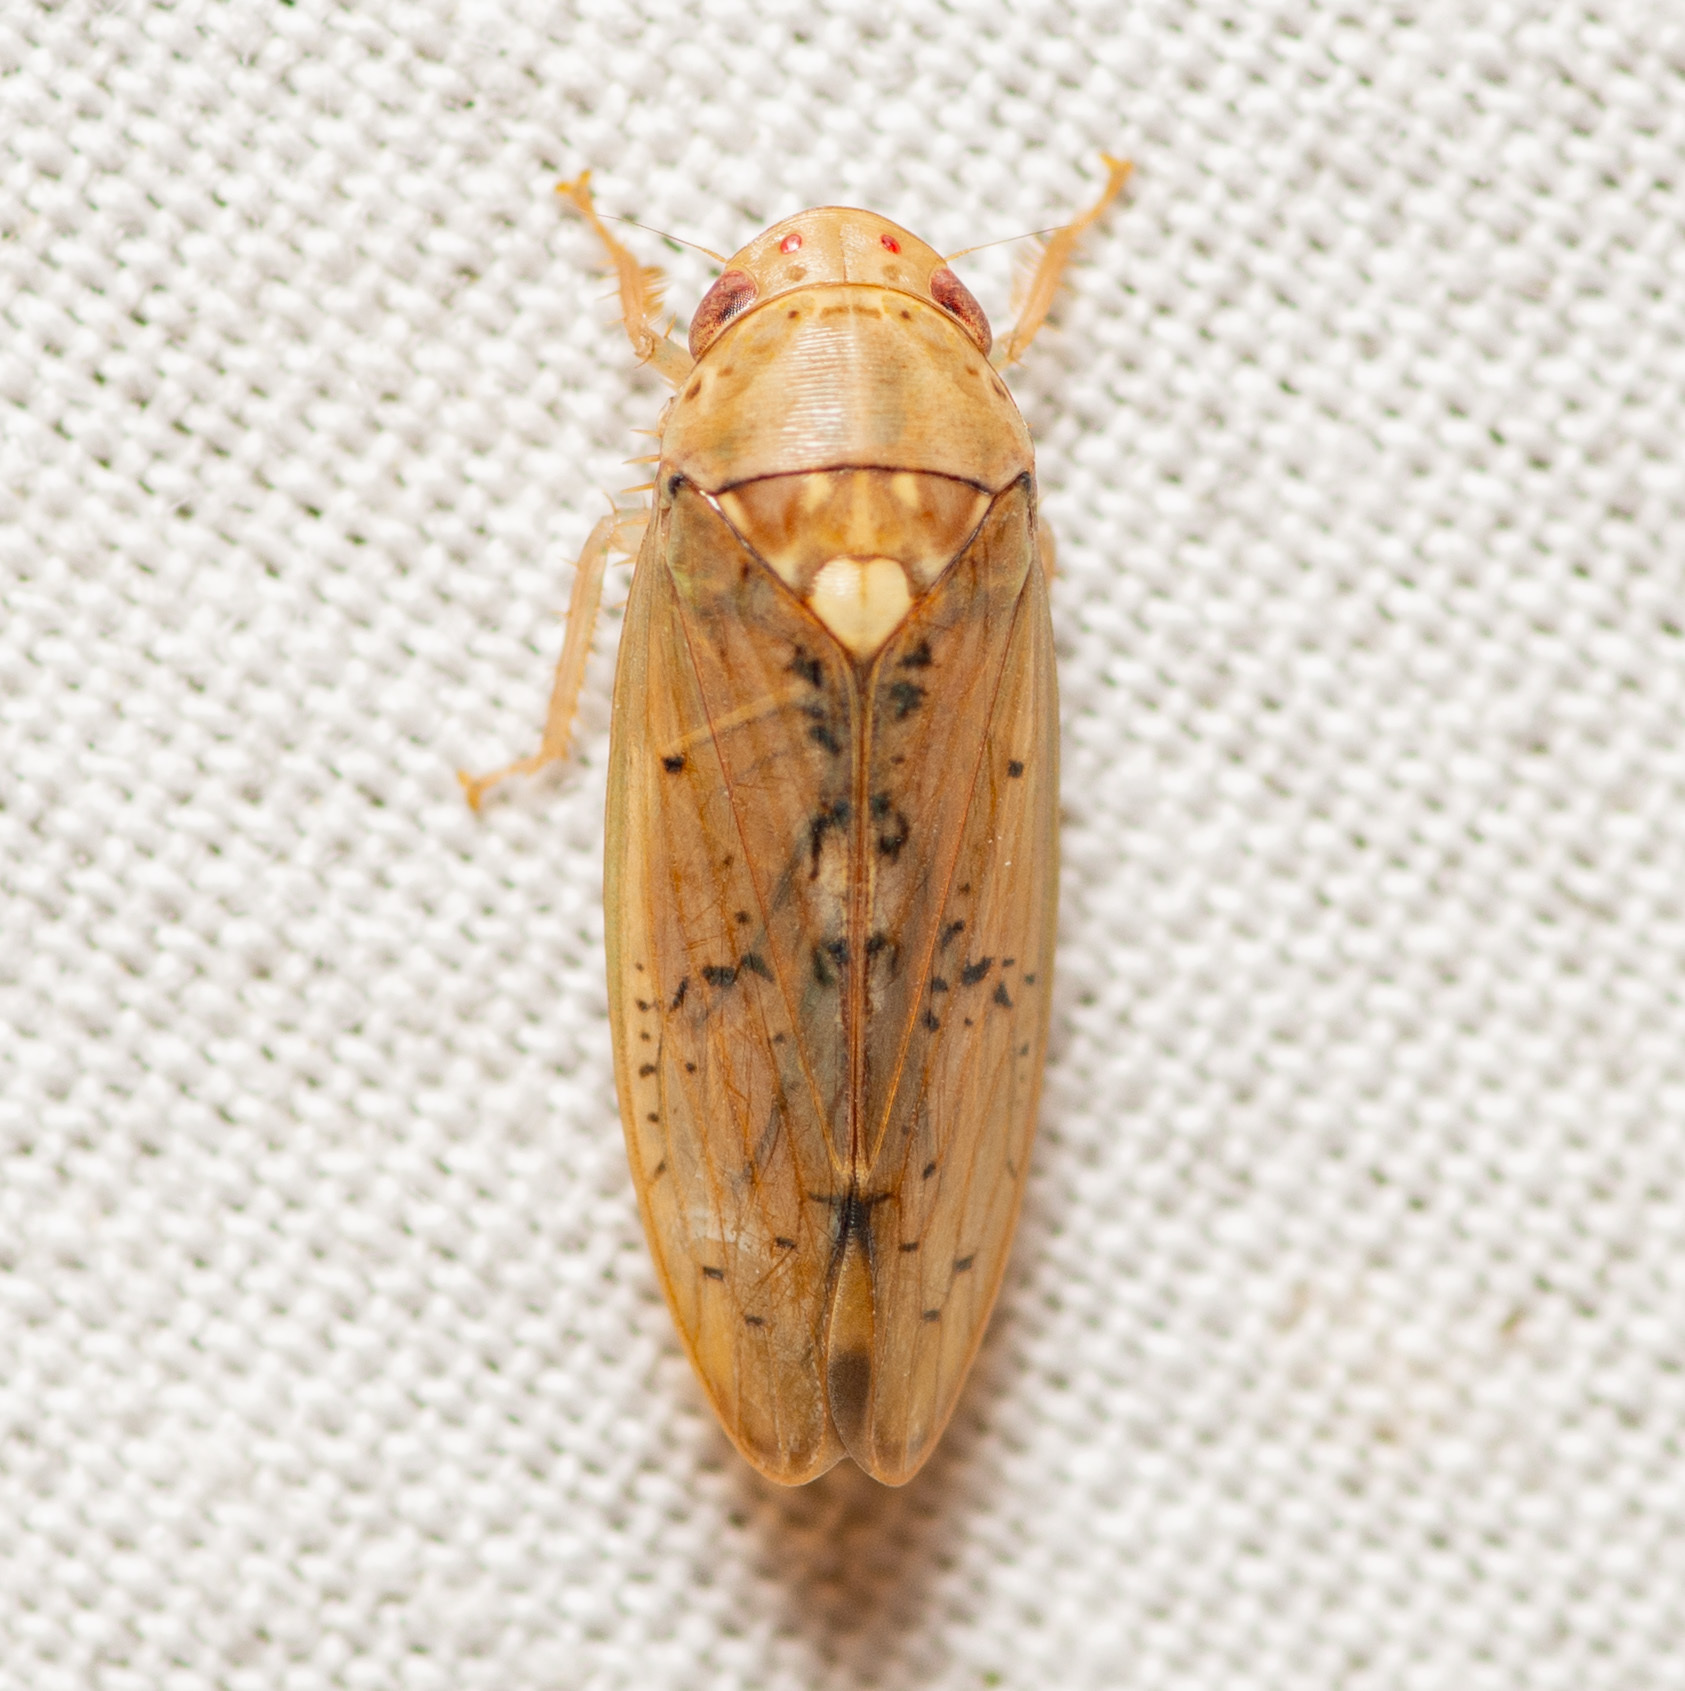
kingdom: Animalia
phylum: Arthropoda
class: Insecta
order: Hemiptera
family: Cicadellidae
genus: Ponana
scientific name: Ponana quadralaba
